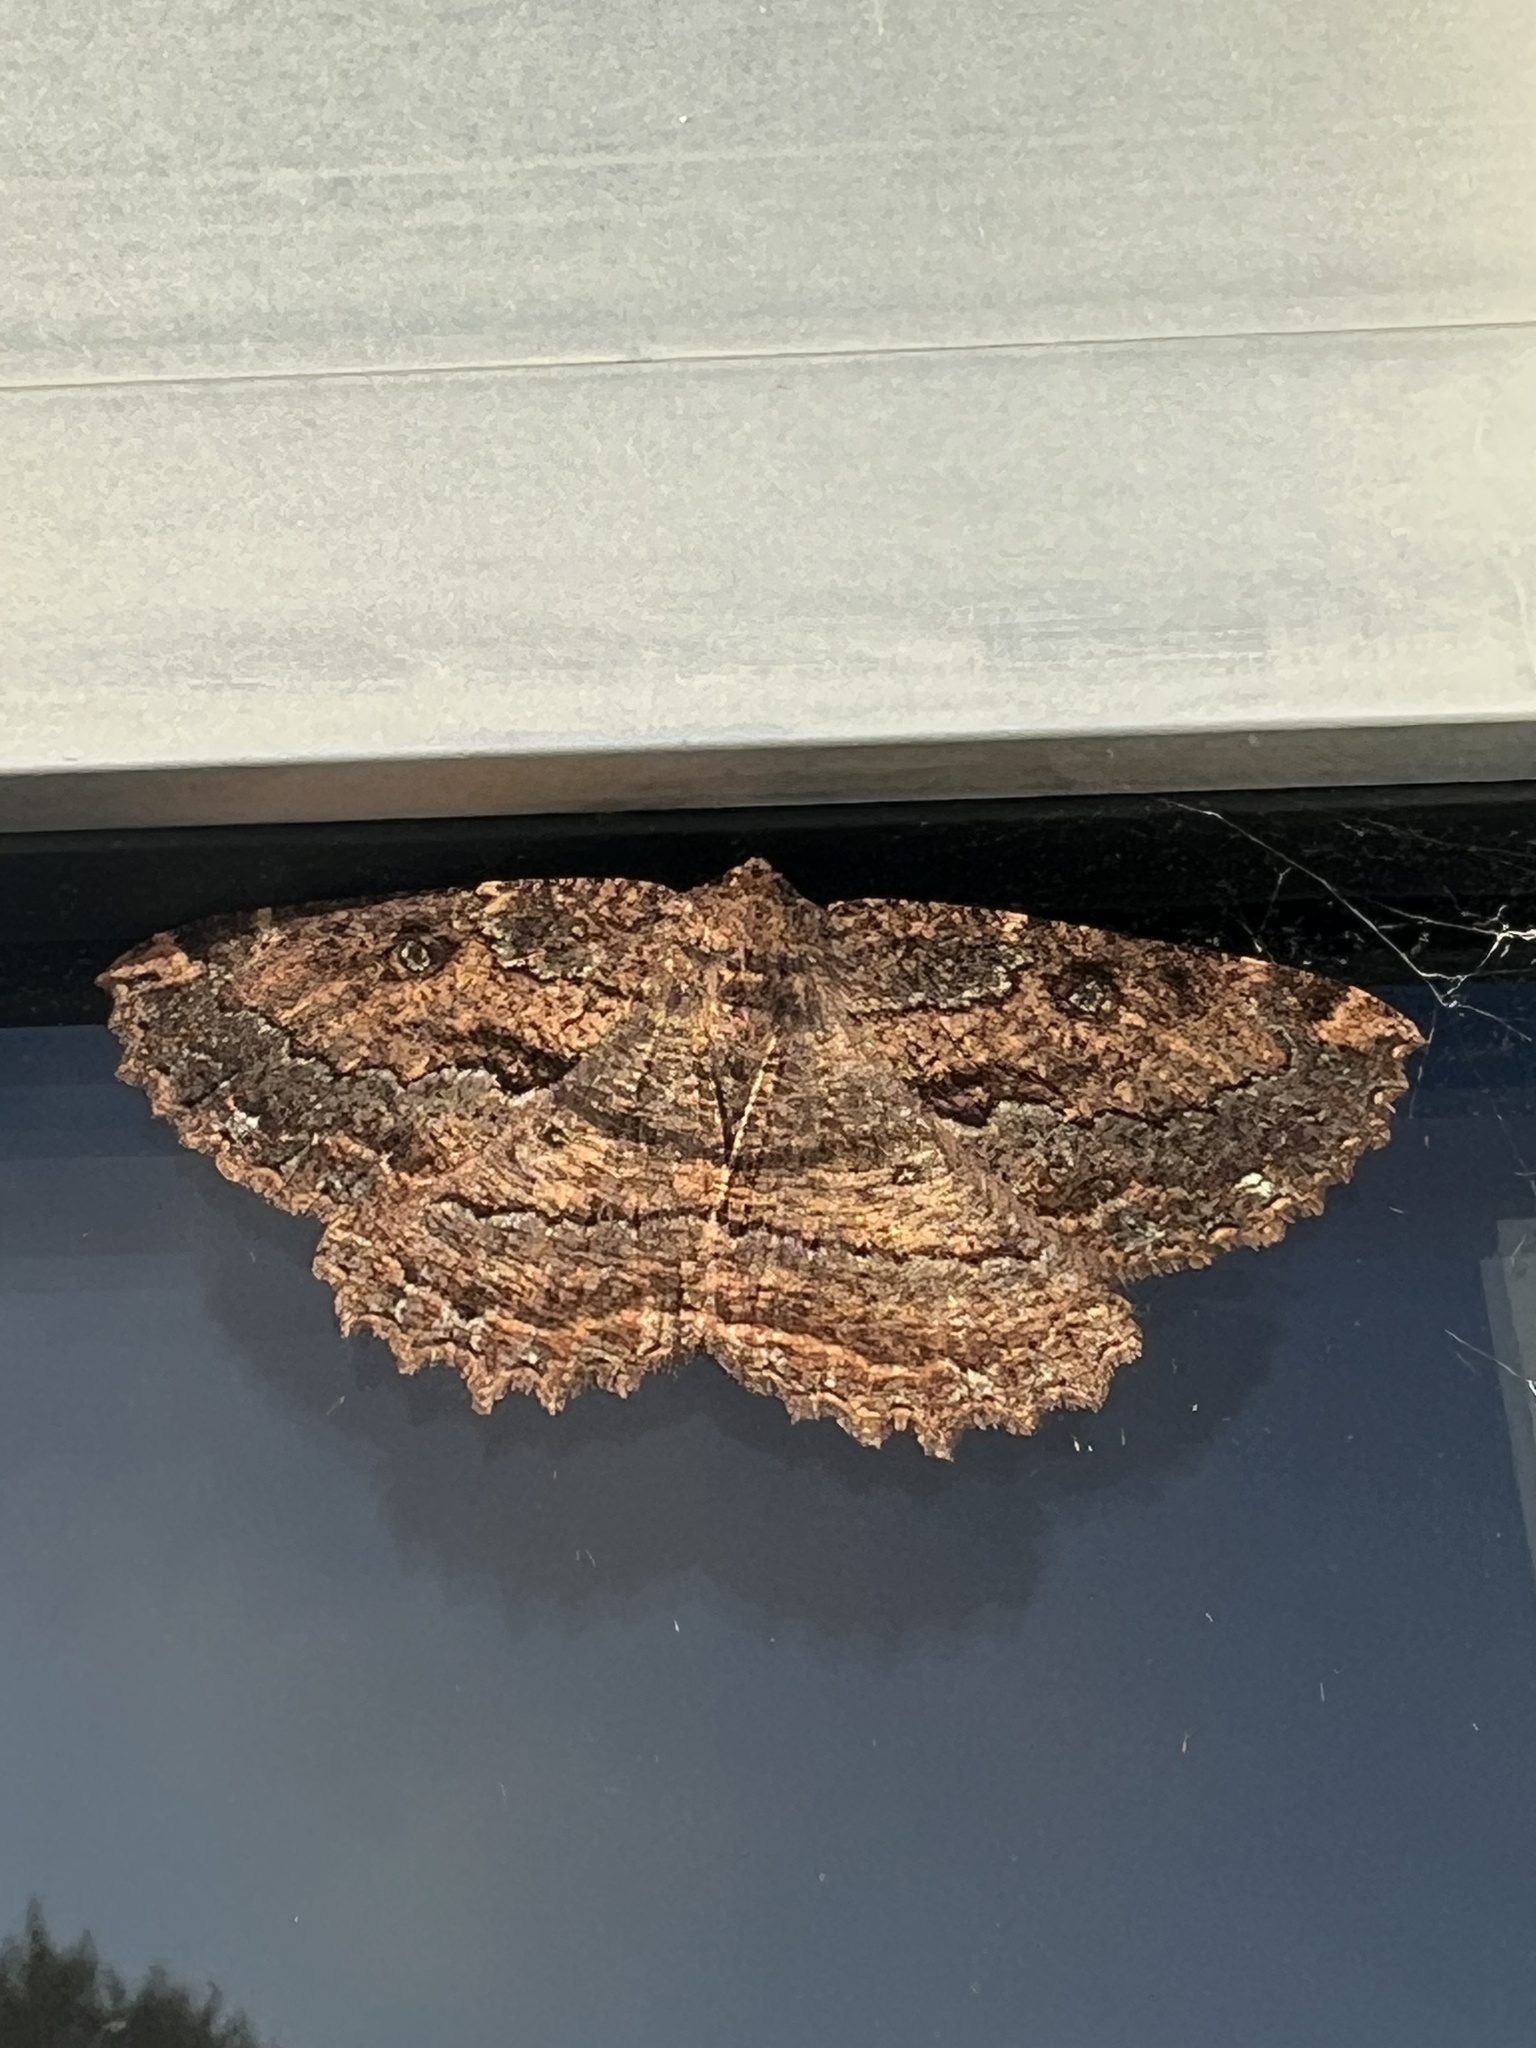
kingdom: Animalia
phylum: Arthropoda
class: Insecta
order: Lepidoptera
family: Geometridae
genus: Gellonia
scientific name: Gellonia dejectaria
